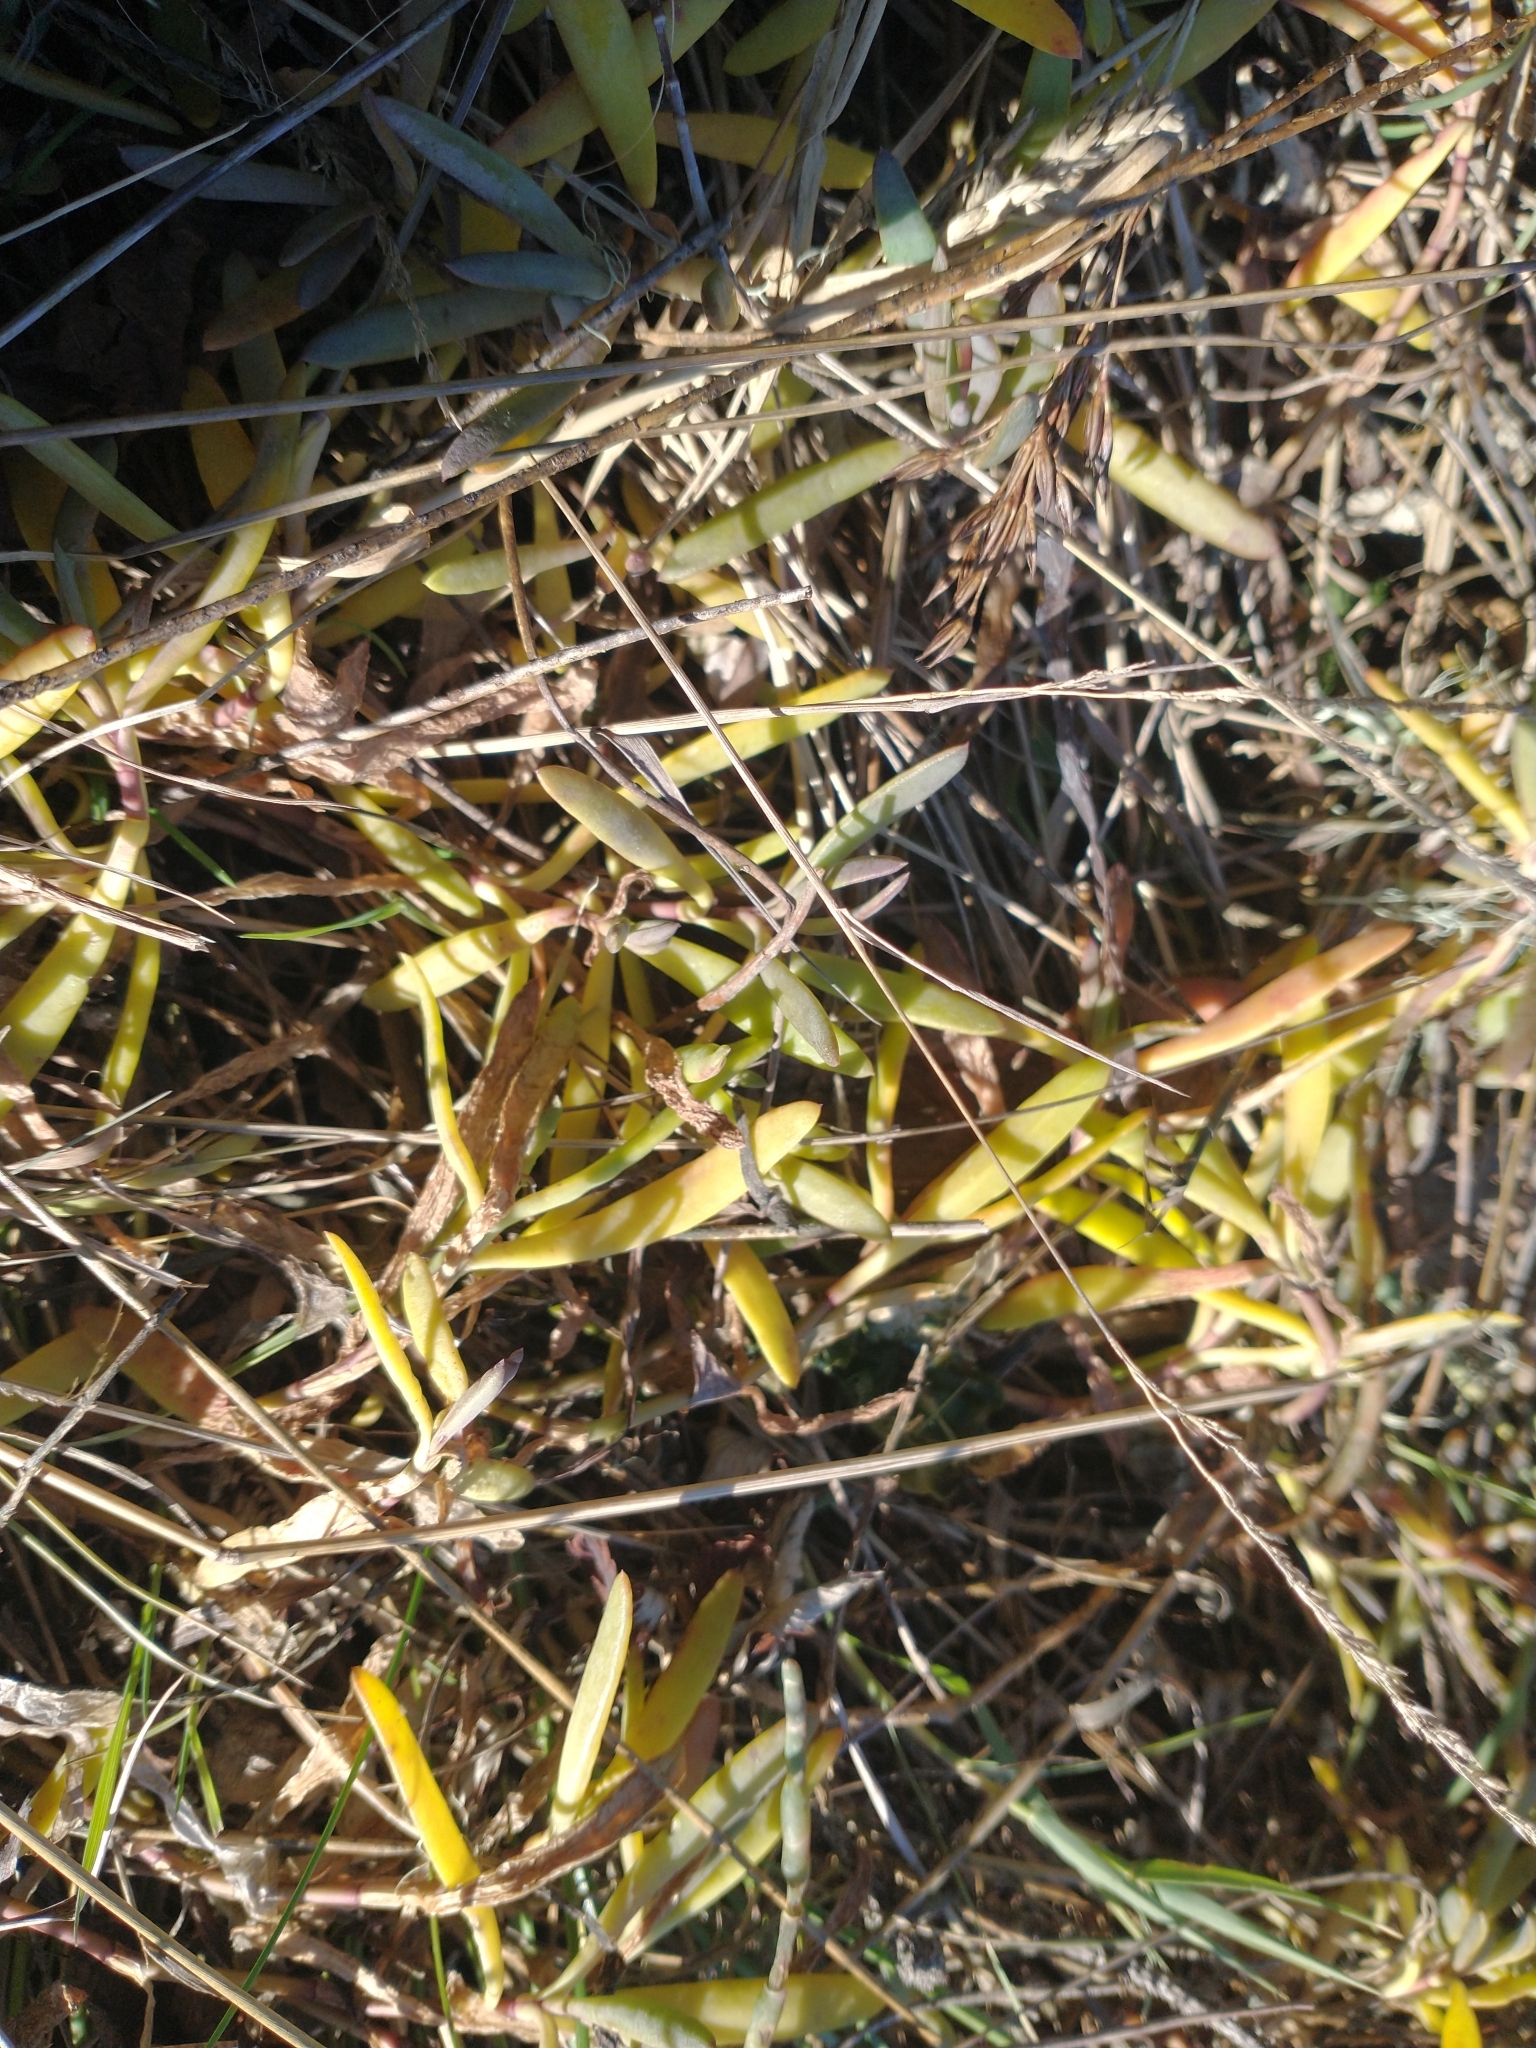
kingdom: Plantae
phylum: Tracheophyta
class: Magnoliopsida
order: Caryophyllales
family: Amaranthaceae
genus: Salicornia
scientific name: Salicornia pacifica
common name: Pacific glasswort
